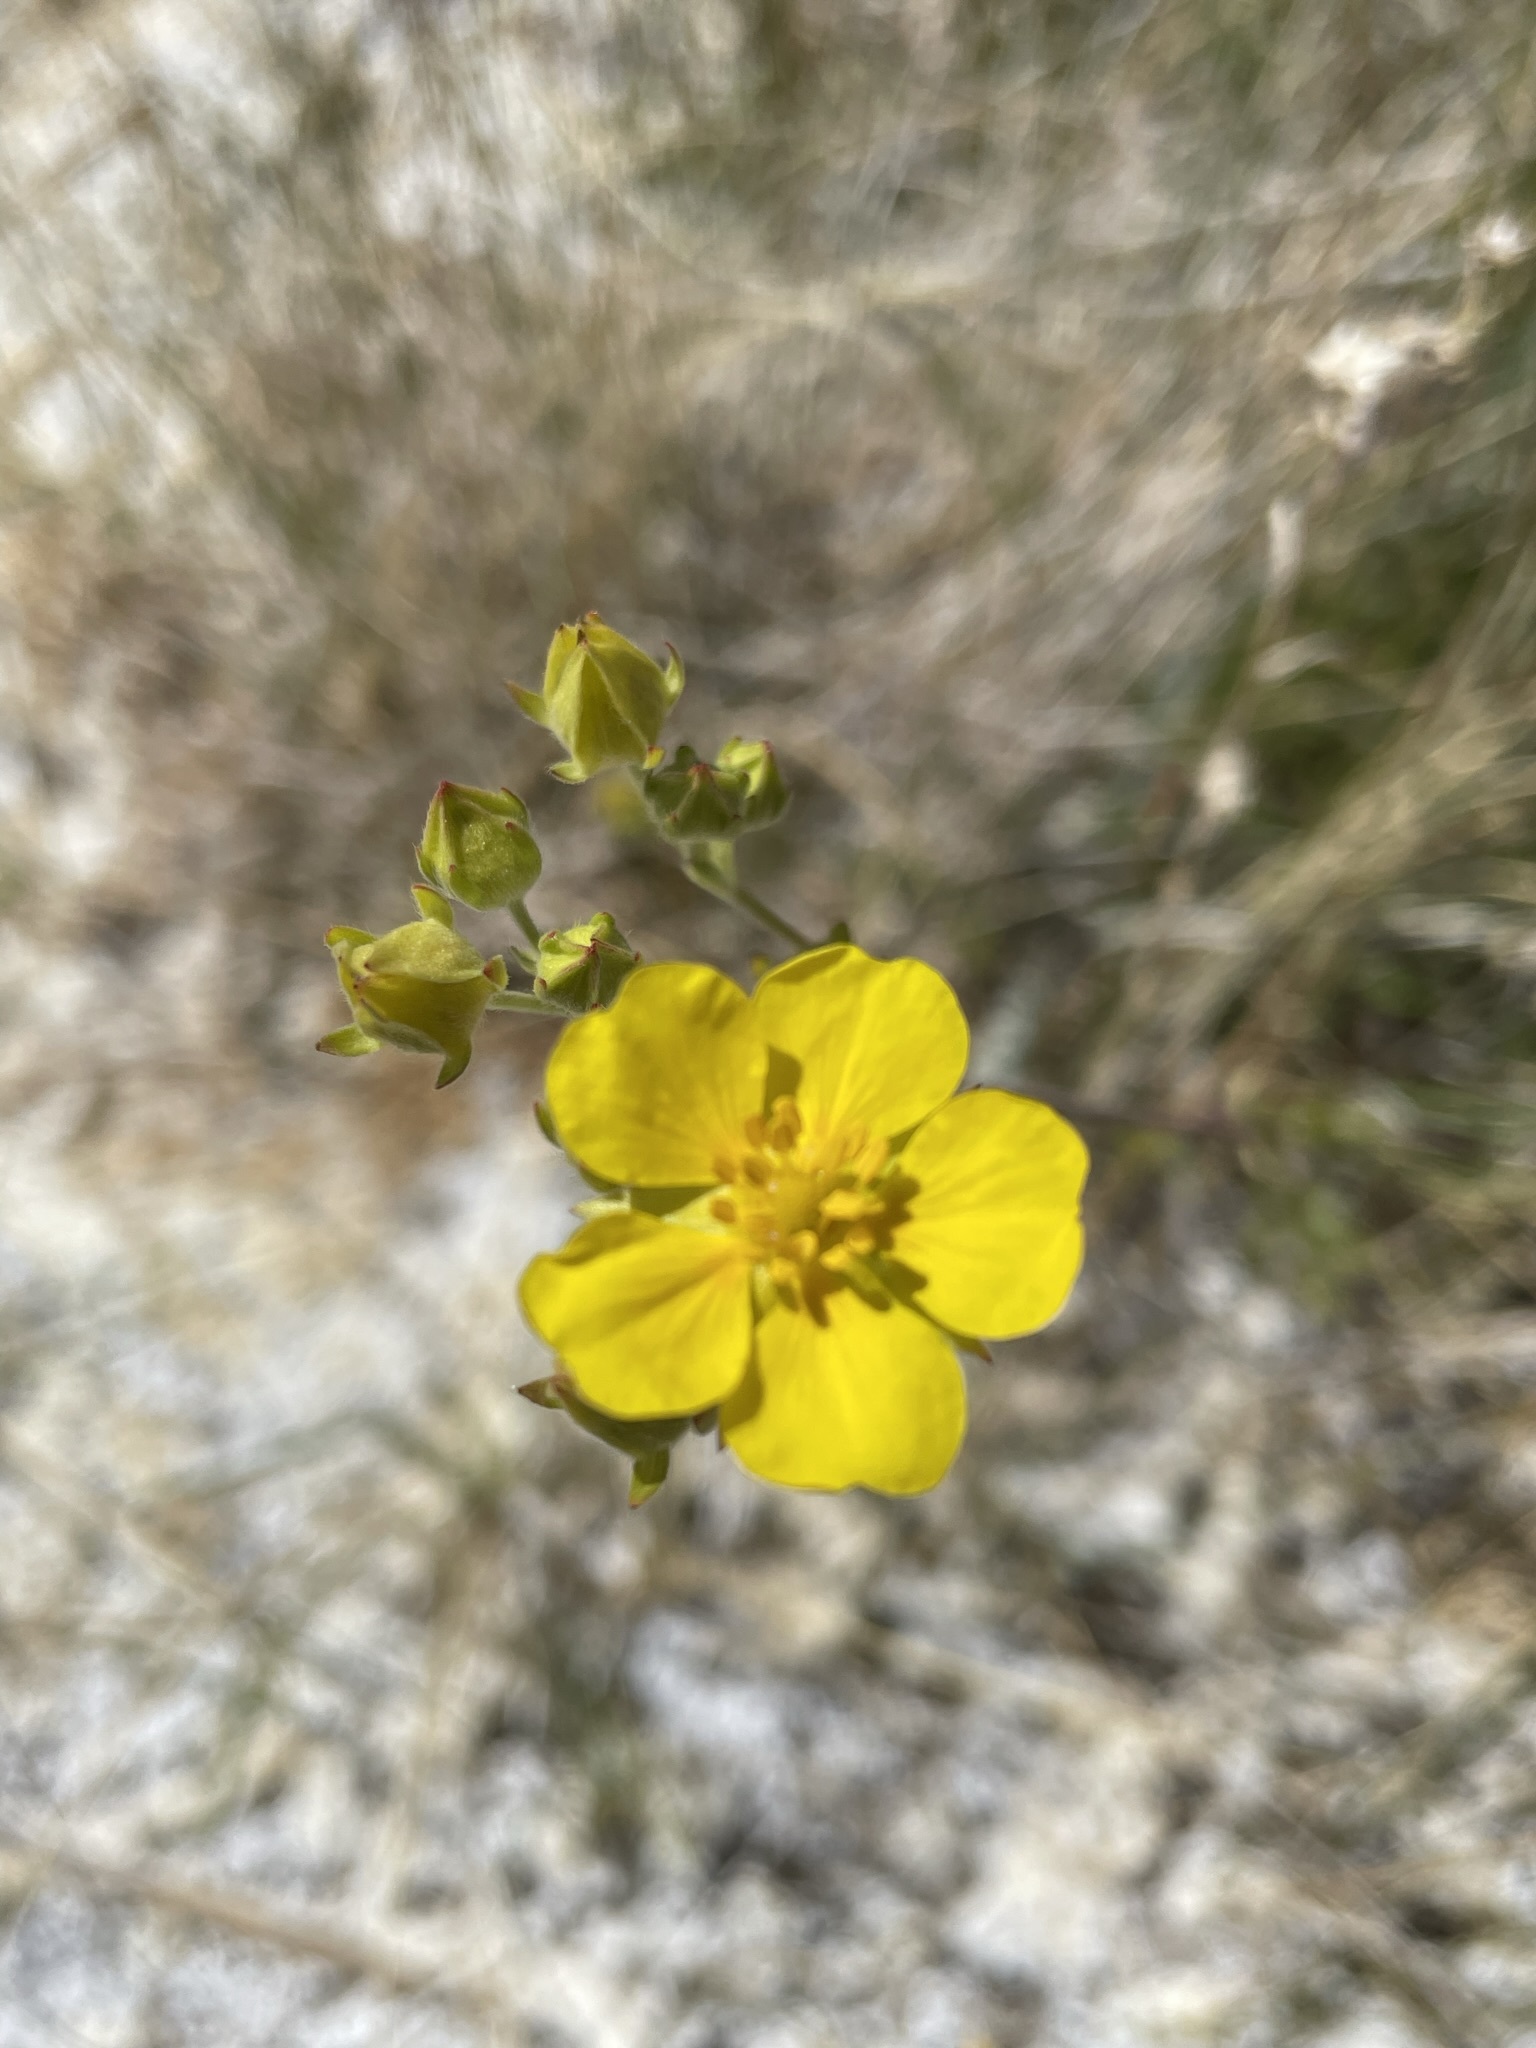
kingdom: Plantae
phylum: Tracheophyta
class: Magnoliopsida
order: Rosales
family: Rosaceae
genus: Potentilla
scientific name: Potentilla gracilis
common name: Graceful cinquefoil
